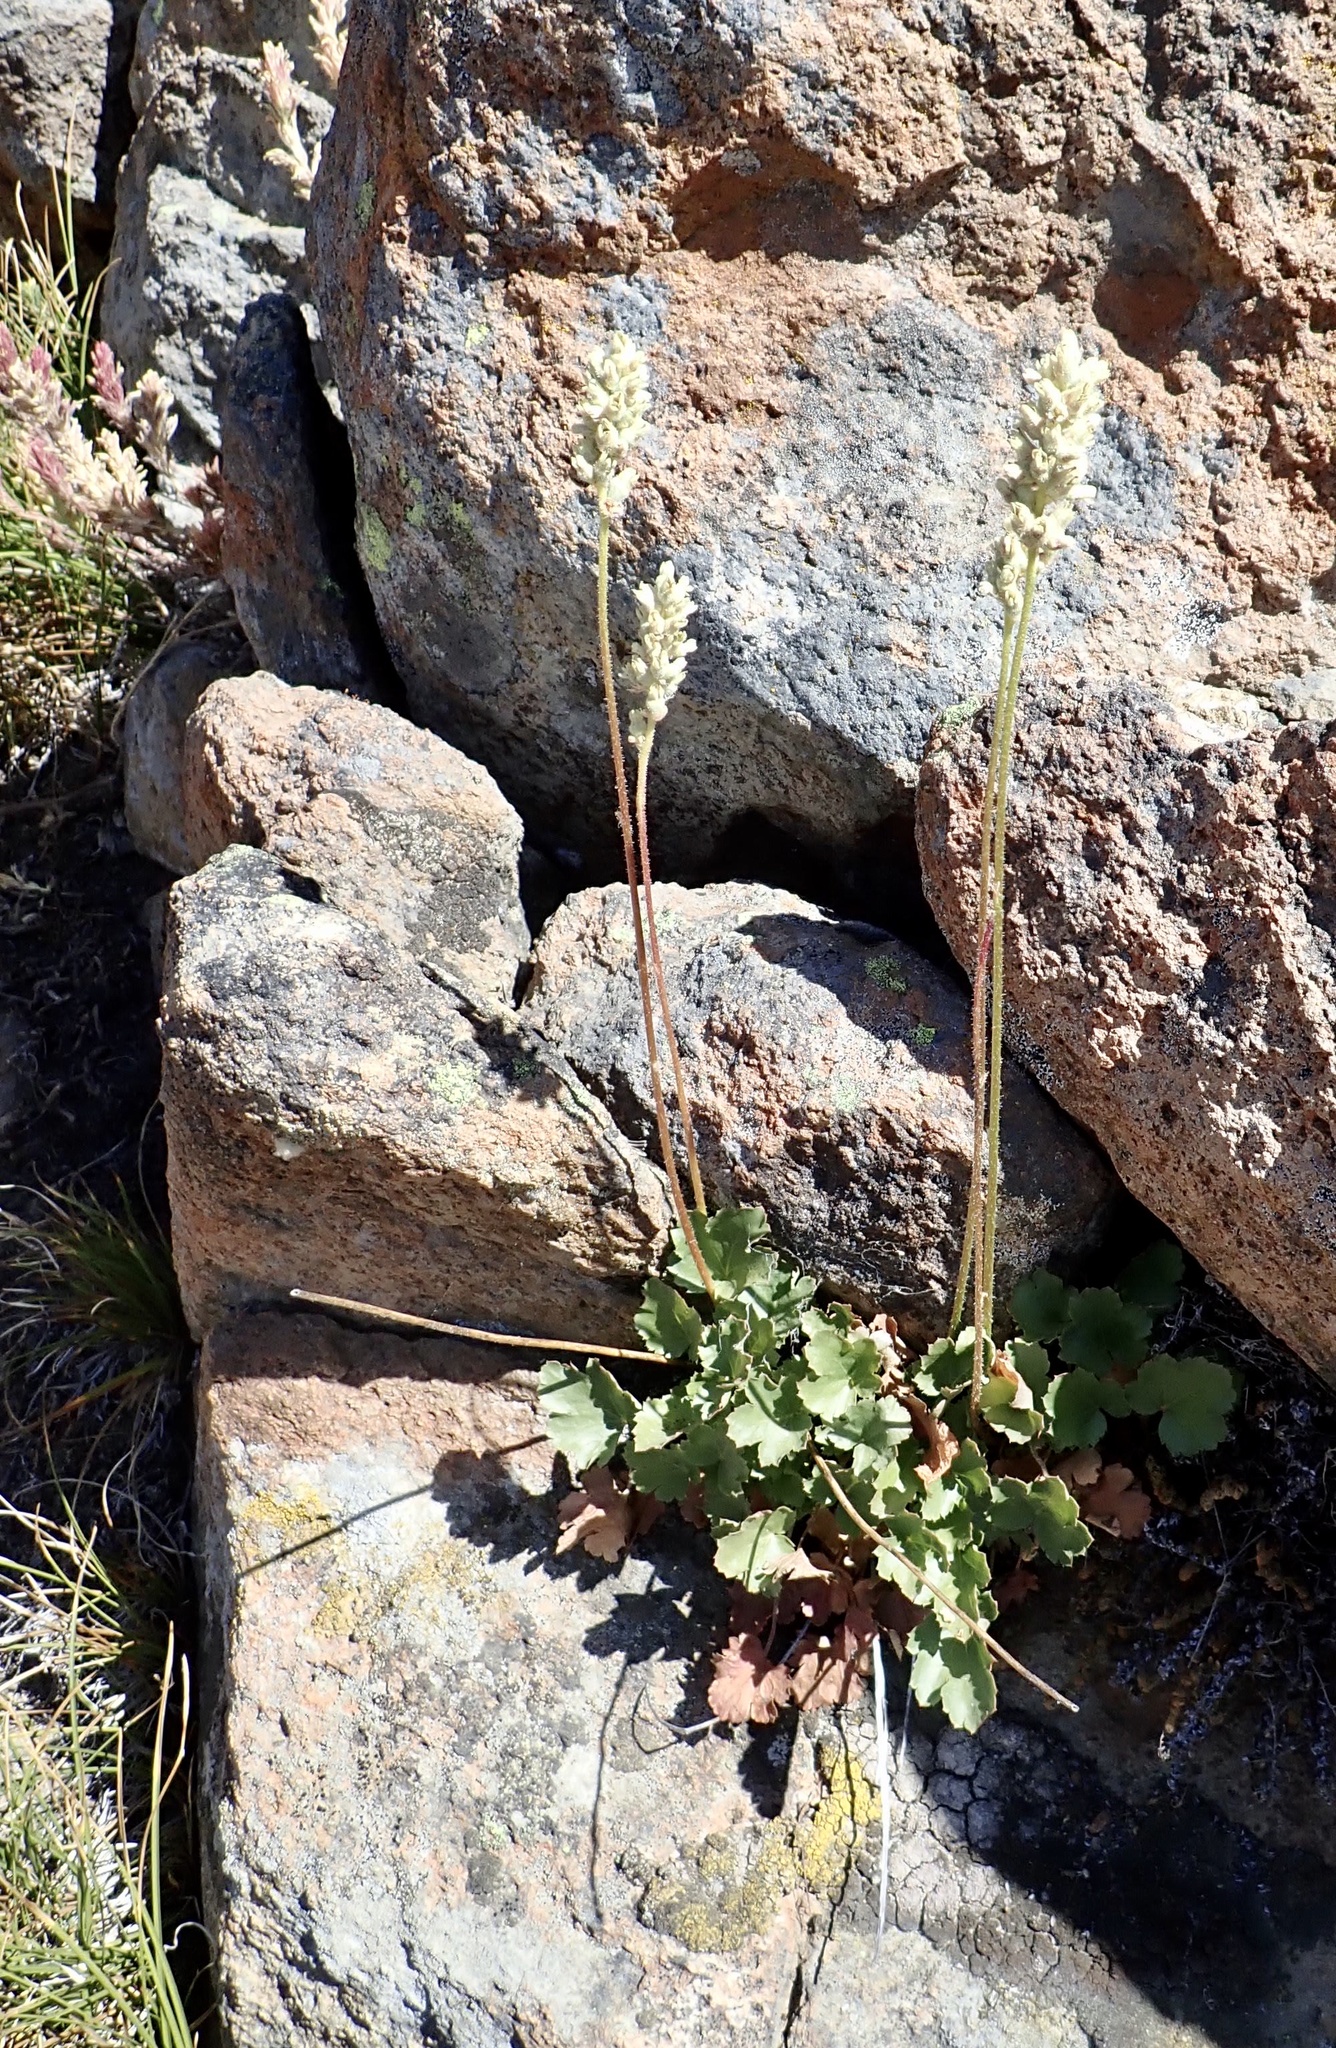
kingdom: Plantae
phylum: Tracheophyta
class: Magnoliopsida
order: Saxifragales
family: Saxifragaceae
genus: Heuchera
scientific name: Heuchera cylindrica
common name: Mat alumroot
